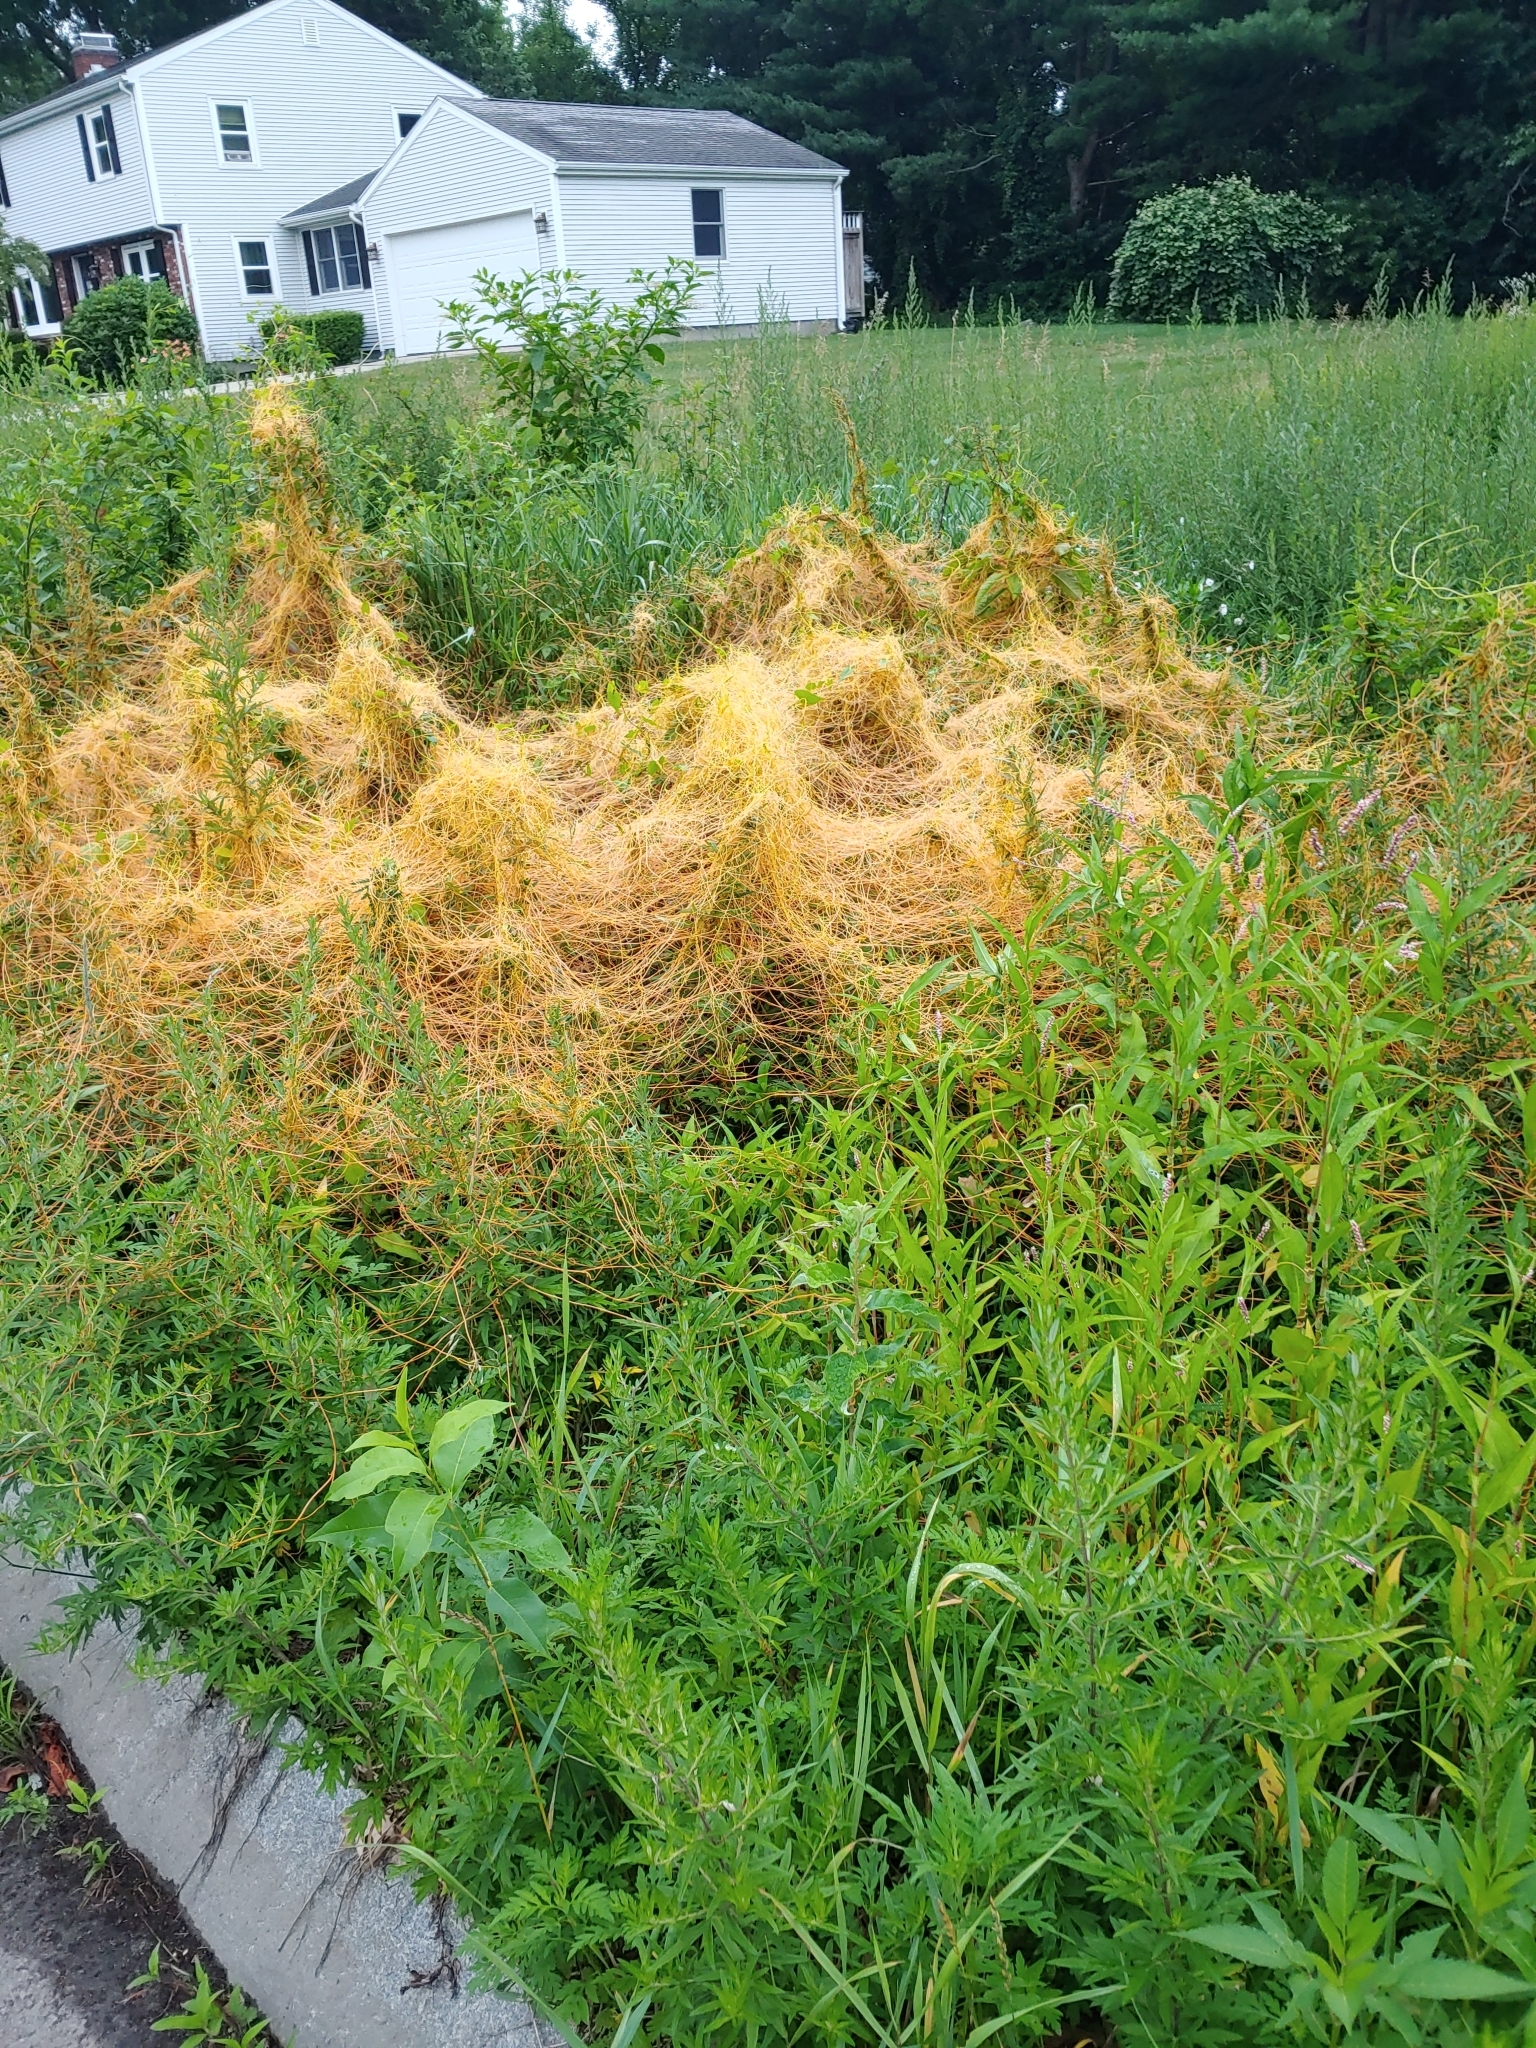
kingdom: Plantae
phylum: Tracheophyta
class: Magnoliopsida
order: Solanales
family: Convolvulaceae
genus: Cuscuta
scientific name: Cuscuta
